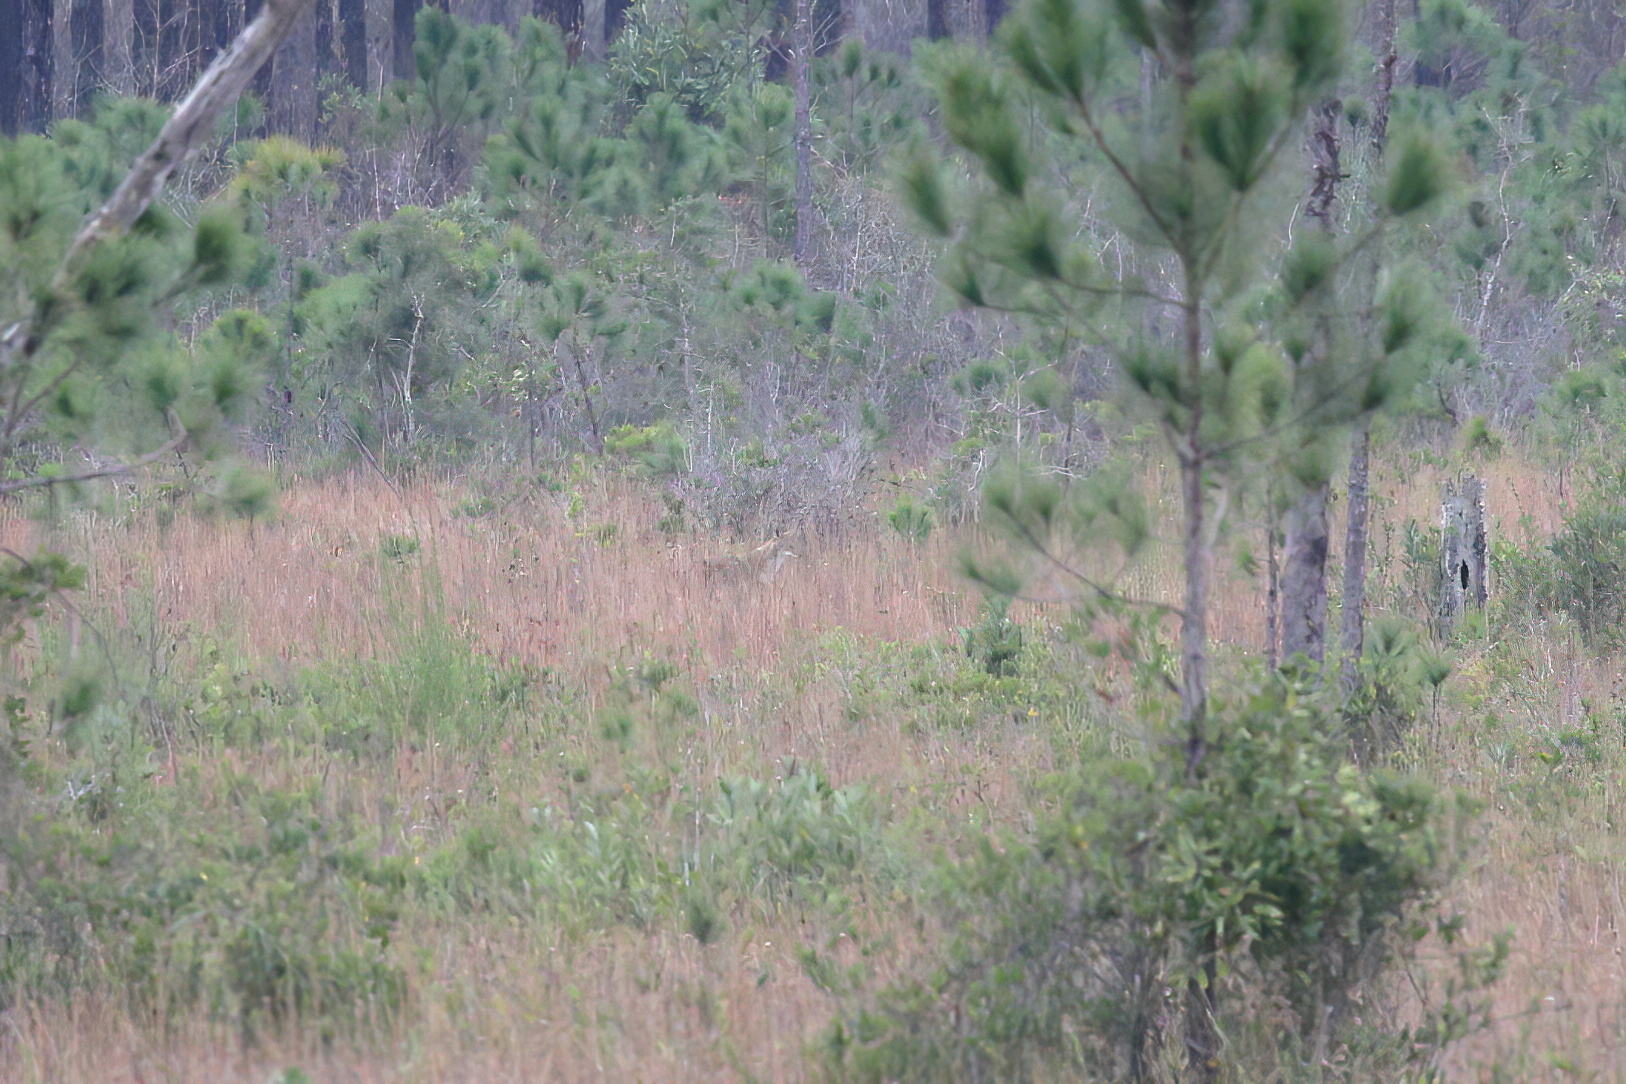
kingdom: Animalia
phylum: Chordata
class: Mammalia
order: Carnivora
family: Canidae
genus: Canis
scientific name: Canis latrans
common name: Coyote
